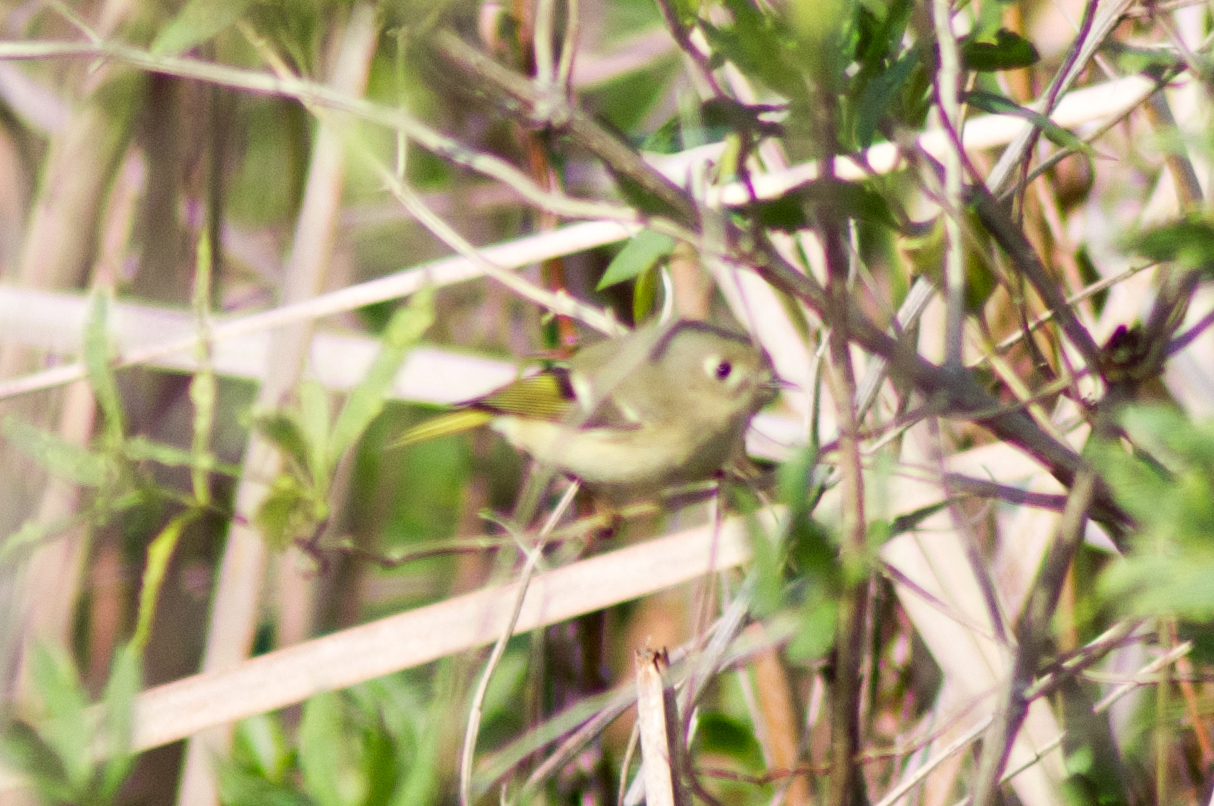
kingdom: Animalia
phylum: Chordata
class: Aves
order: Passeriformes
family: Regulidae
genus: Regulus
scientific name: Regulus calendula
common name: Ruby-crowned kinglet
